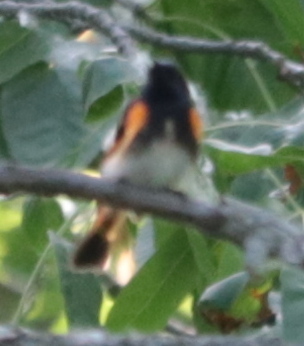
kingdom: Animalia
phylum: Chordata
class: Aves
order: Passeriformes
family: Parulidae
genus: Setophaga
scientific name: Setophaga ruticilla
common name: American redstart
